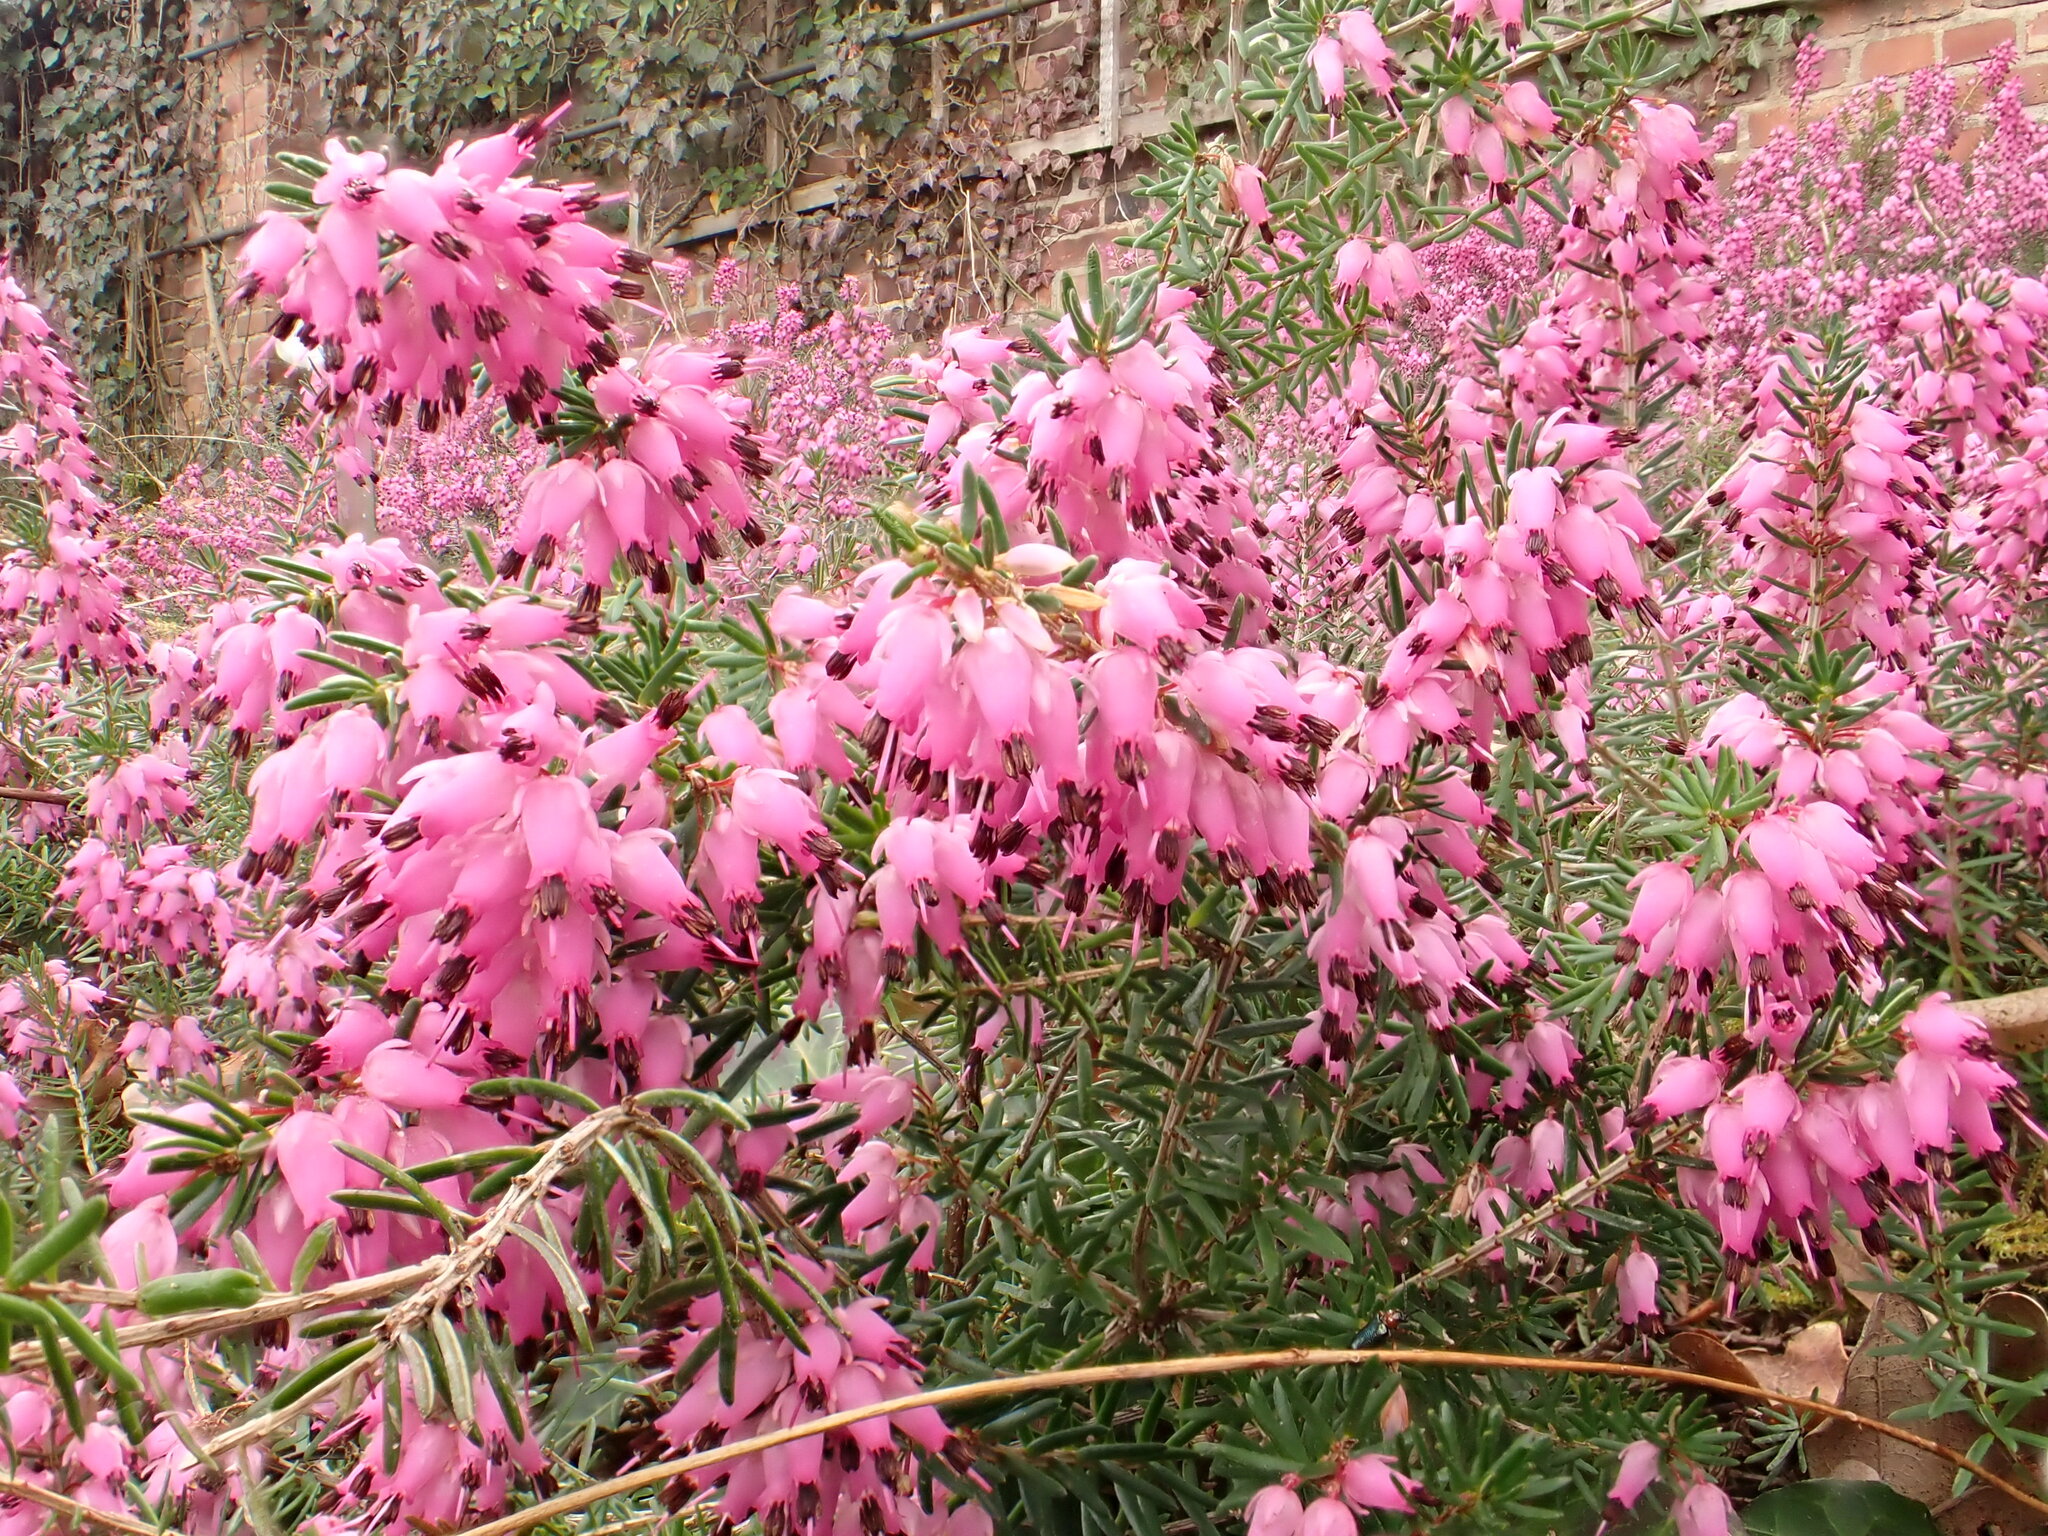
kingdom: Plantae
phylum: Tracheophyta
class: Magnoliopsida
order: Ericales
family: Ericaceae
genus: Erica
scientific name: Erica carnea
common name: Winter heath
